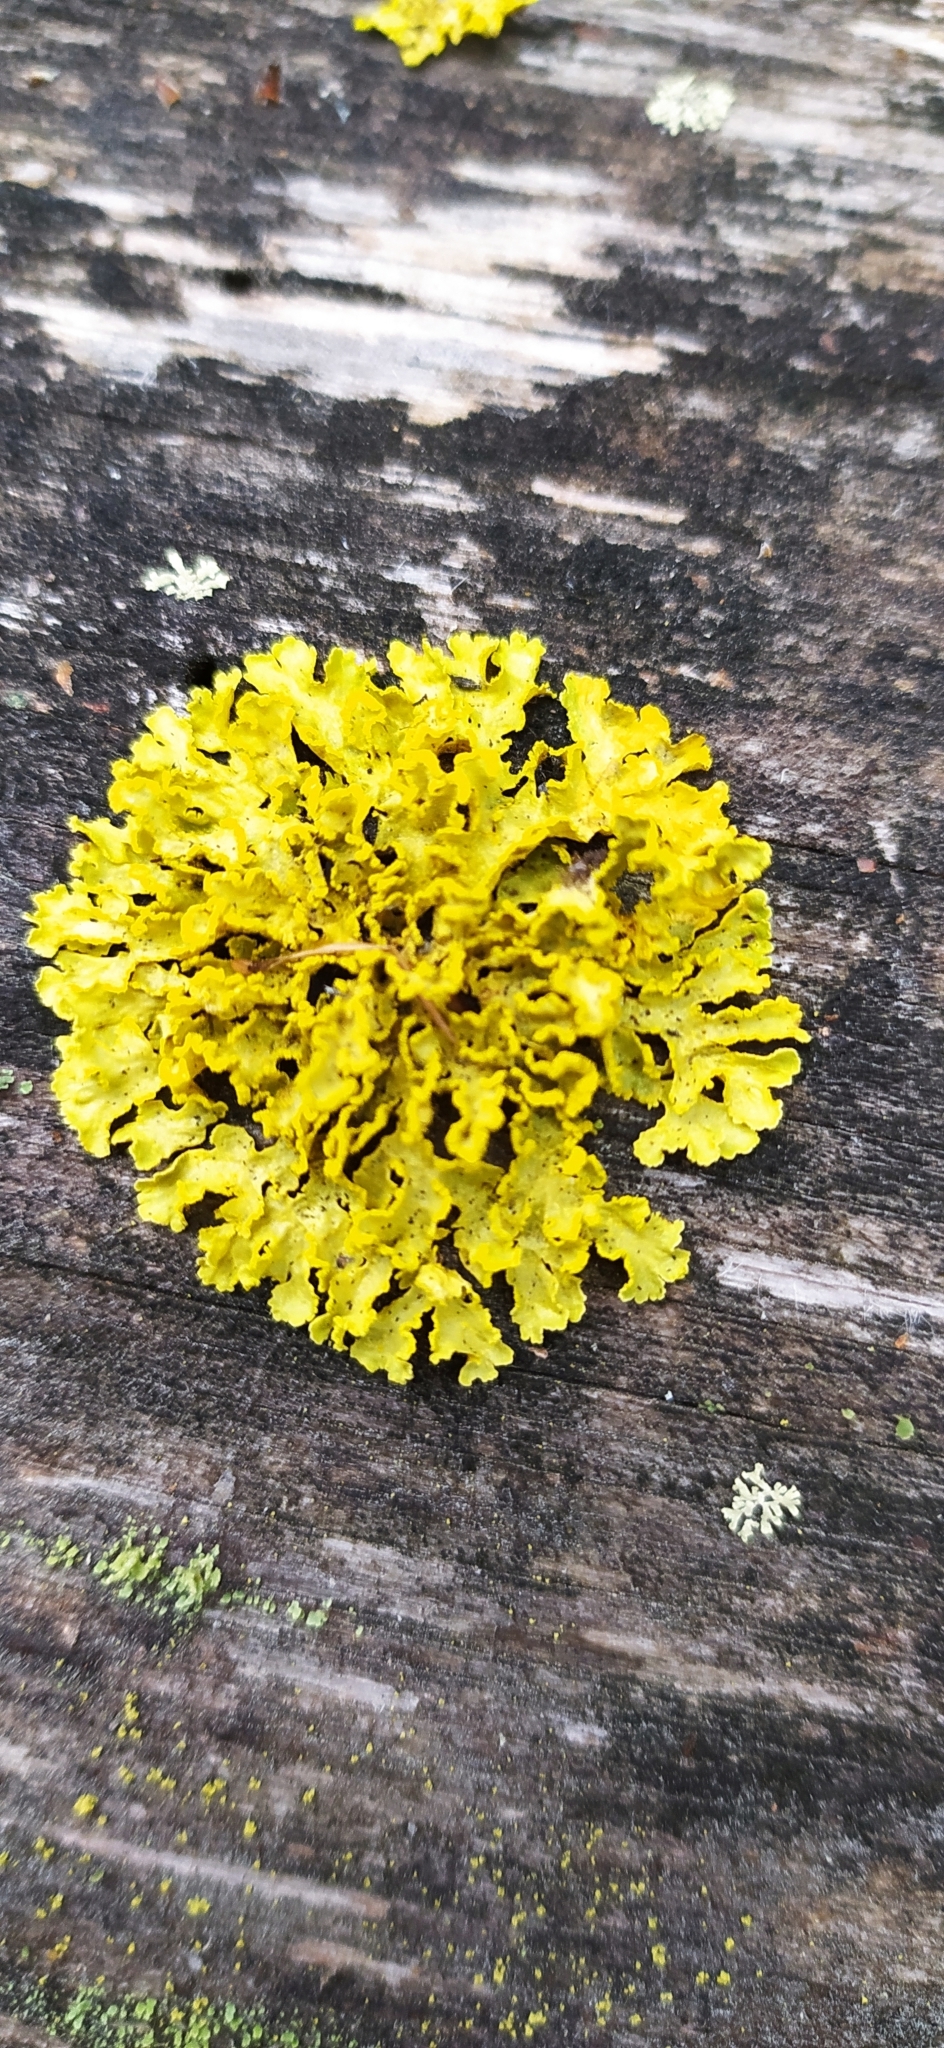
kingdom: Fungi
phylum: Ascomycota
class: Lecanoromycetes
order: Lecanorales
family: Parmeliaceae
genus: Vulpicida
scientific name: Vulpicida pinastri
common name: Powdered sunshine lichen
